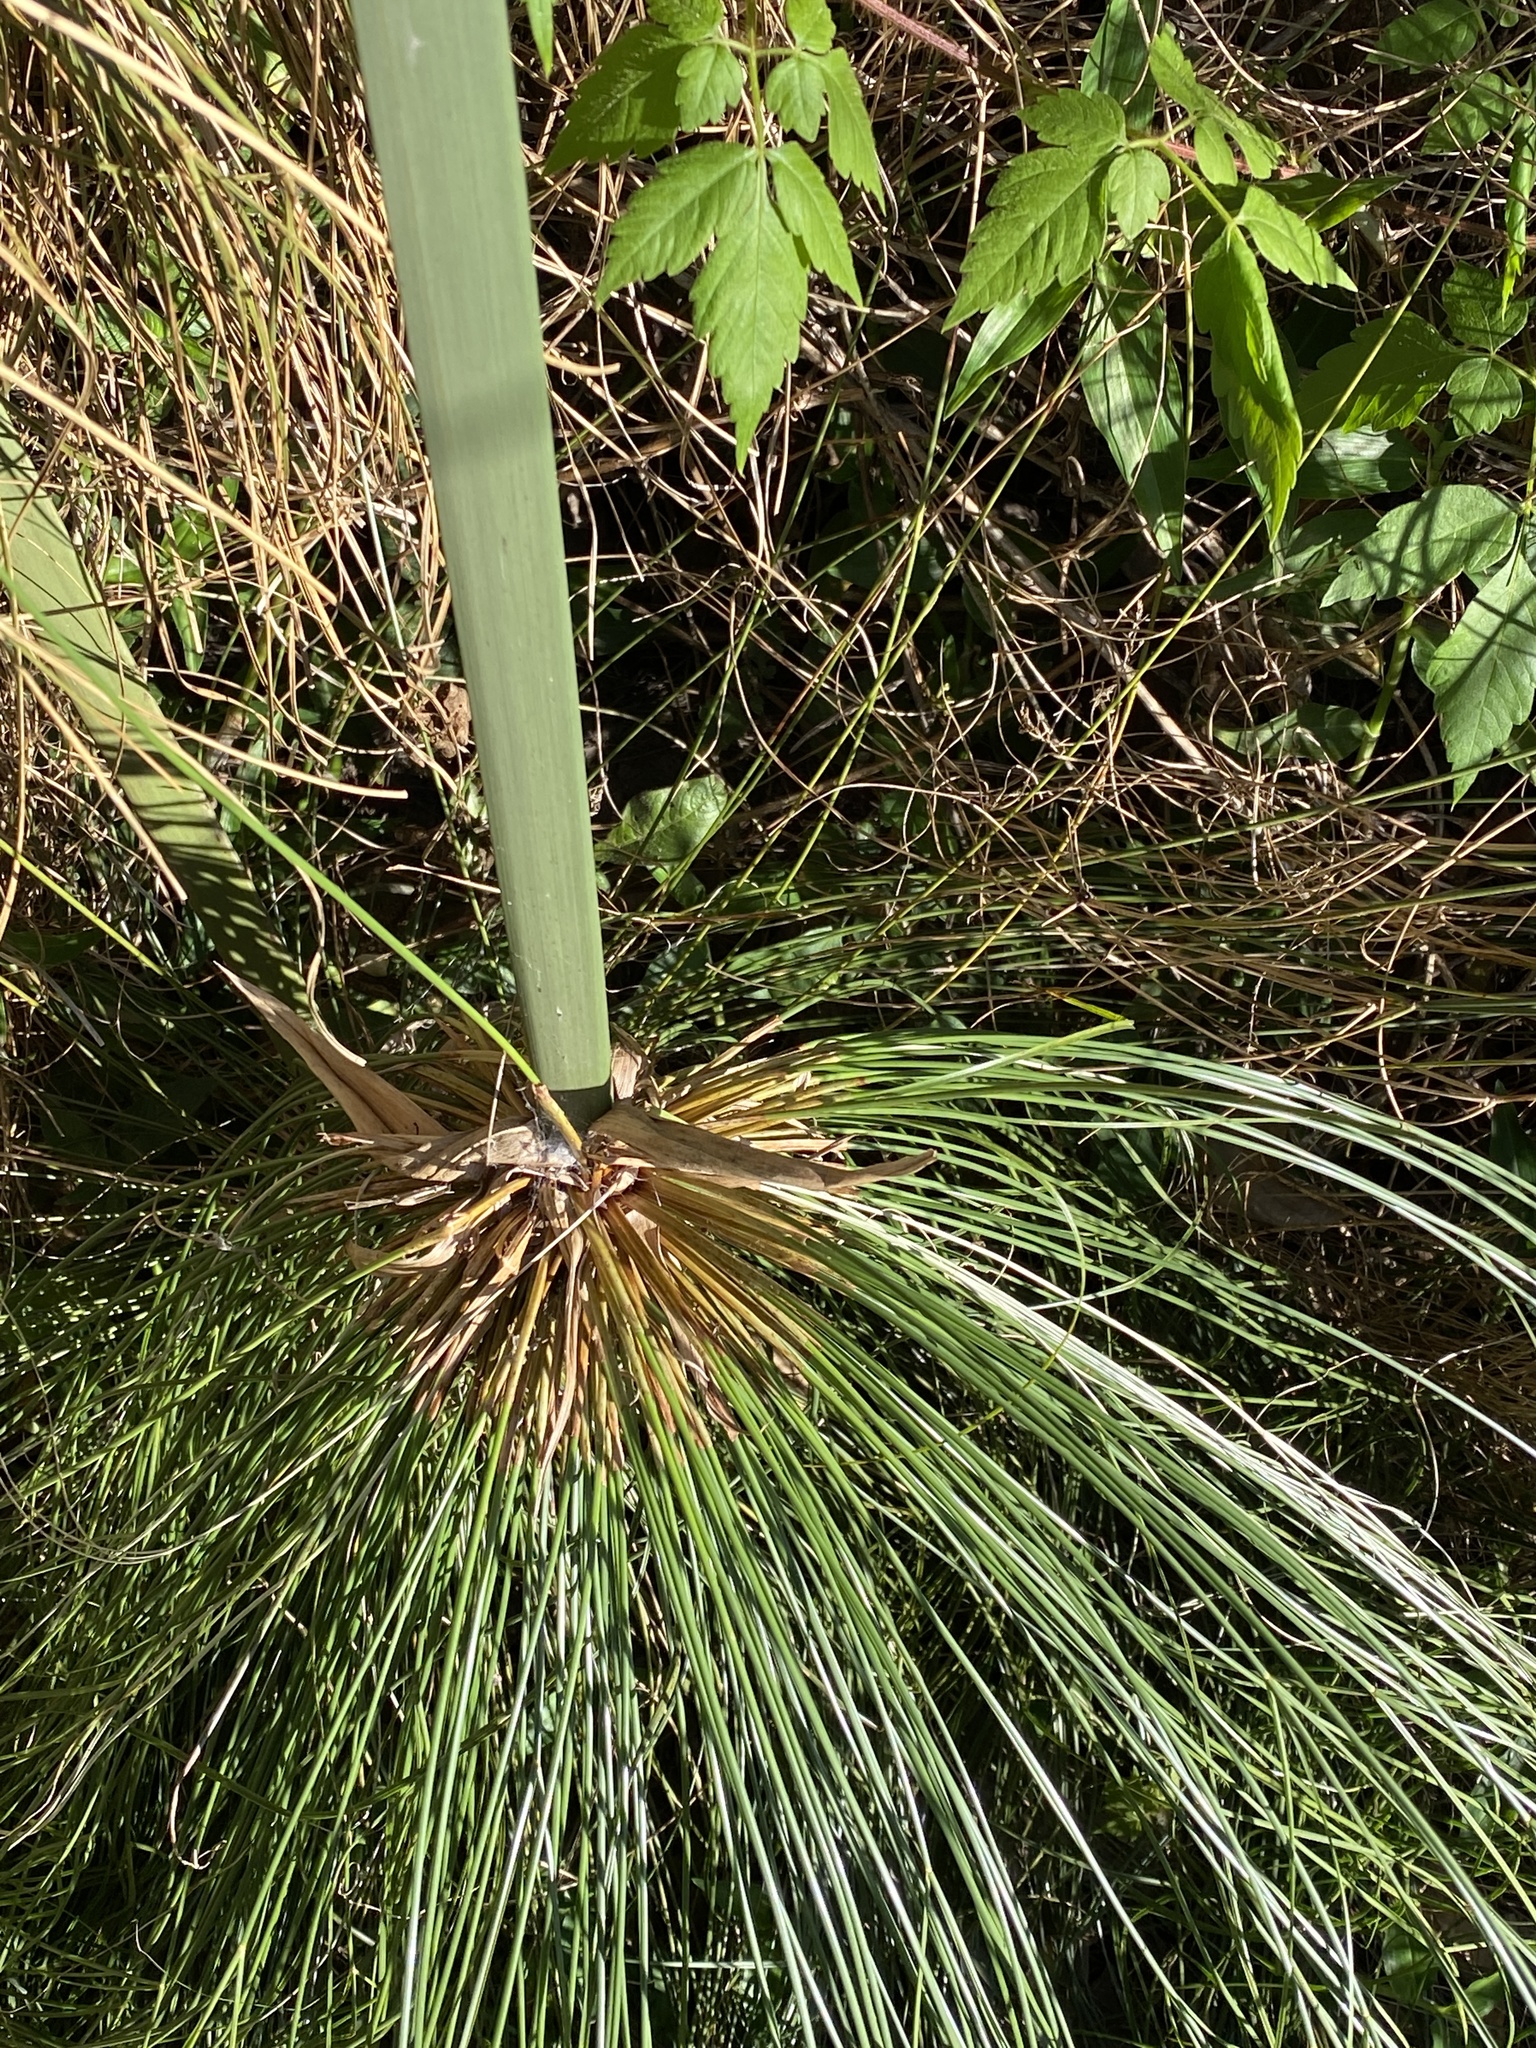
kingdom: Plantae
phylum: Tracheophyta
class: Liliopsida
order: Poales
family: Cyperaceae
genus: Cyperus
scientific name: Cyperus papyrus
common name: Papyrus
